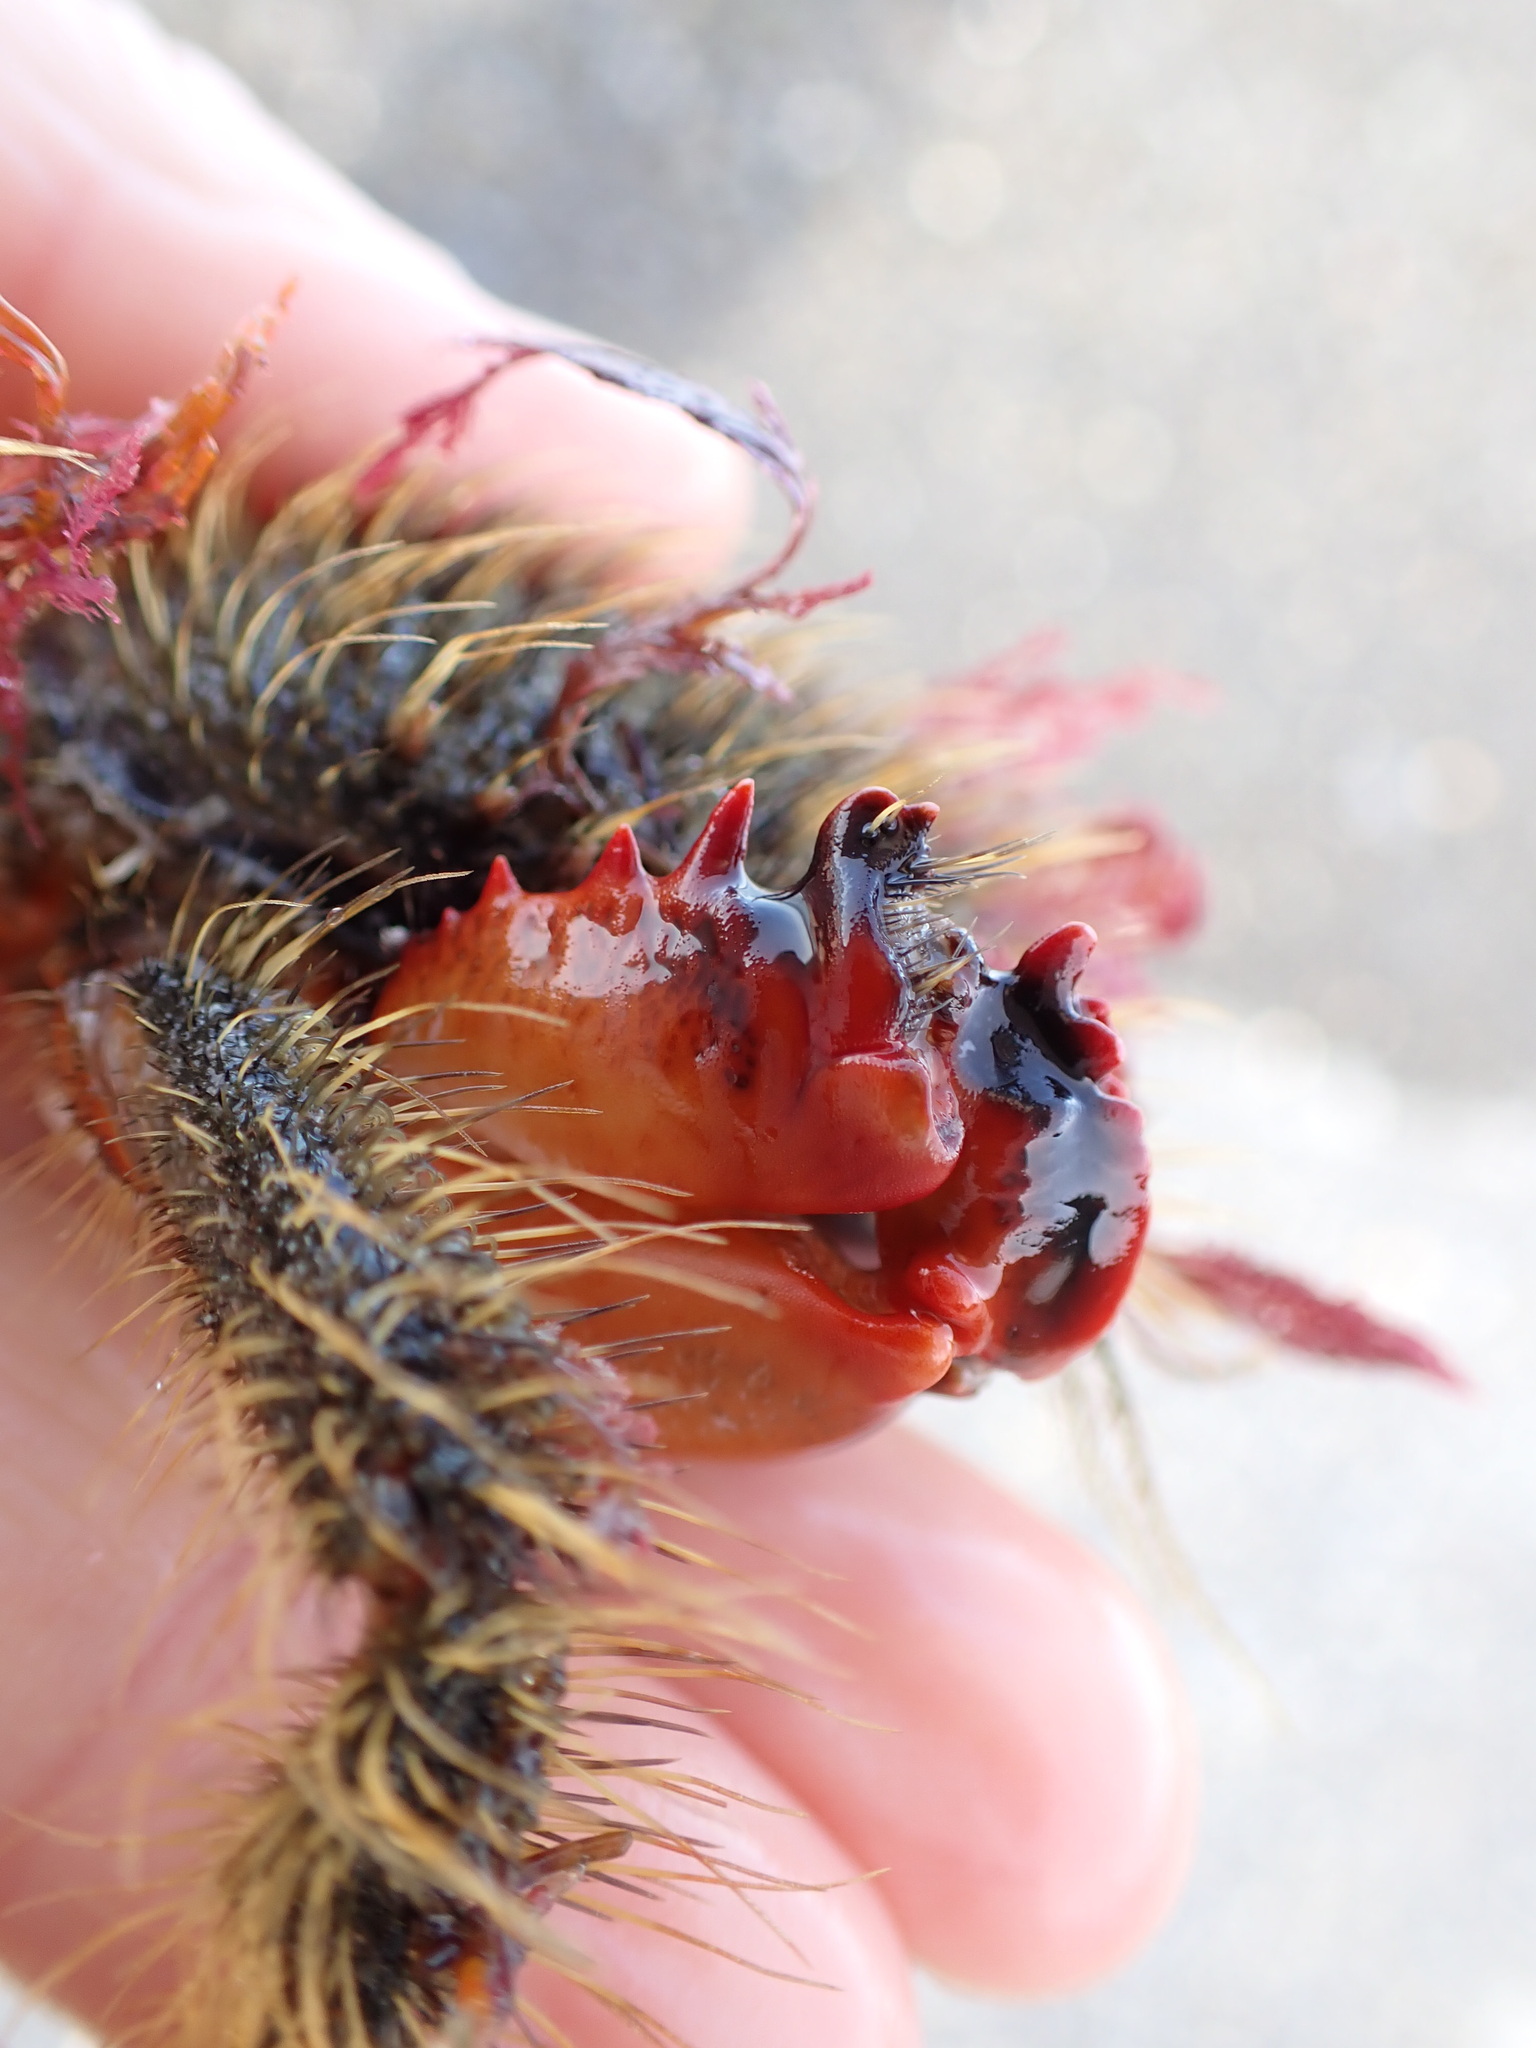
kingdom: Animalia
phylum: Arthropoda
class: Malacostraca
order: Decapoda
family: Majidae
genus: Notomithrax
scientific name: Notomithrax ursus
